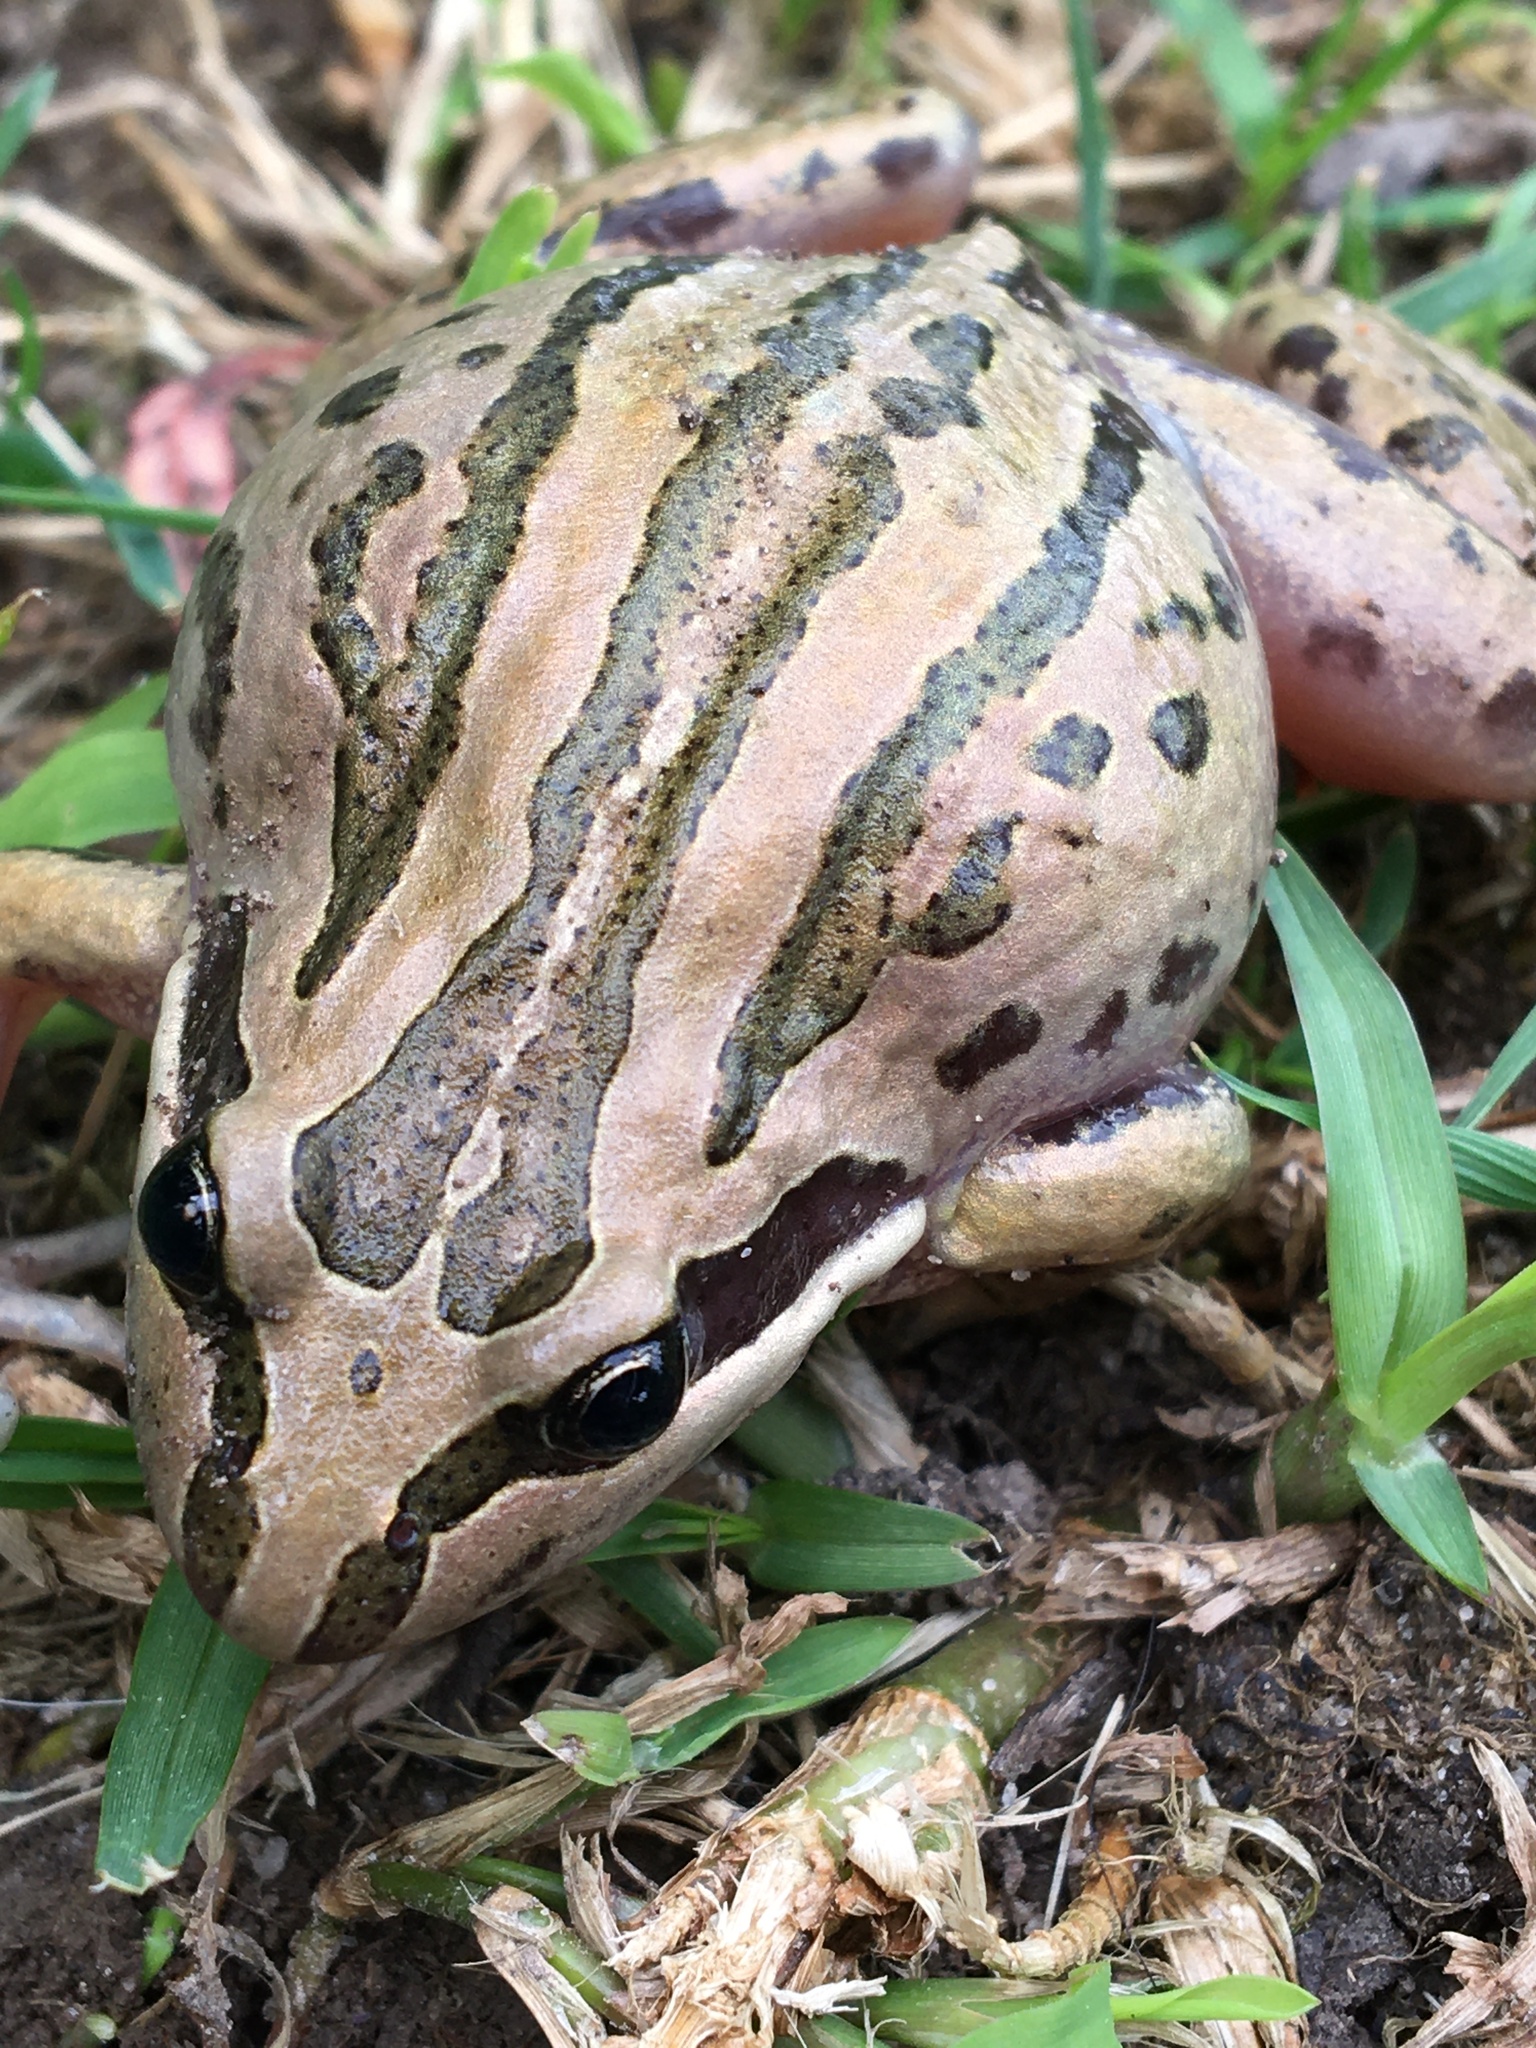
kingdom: Animalia
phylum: Chordata
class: Amphibia
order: Anura
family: Limnodynastidae
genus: Limnodynastes
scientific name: Limnodynastes peronii
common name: Brown frog
